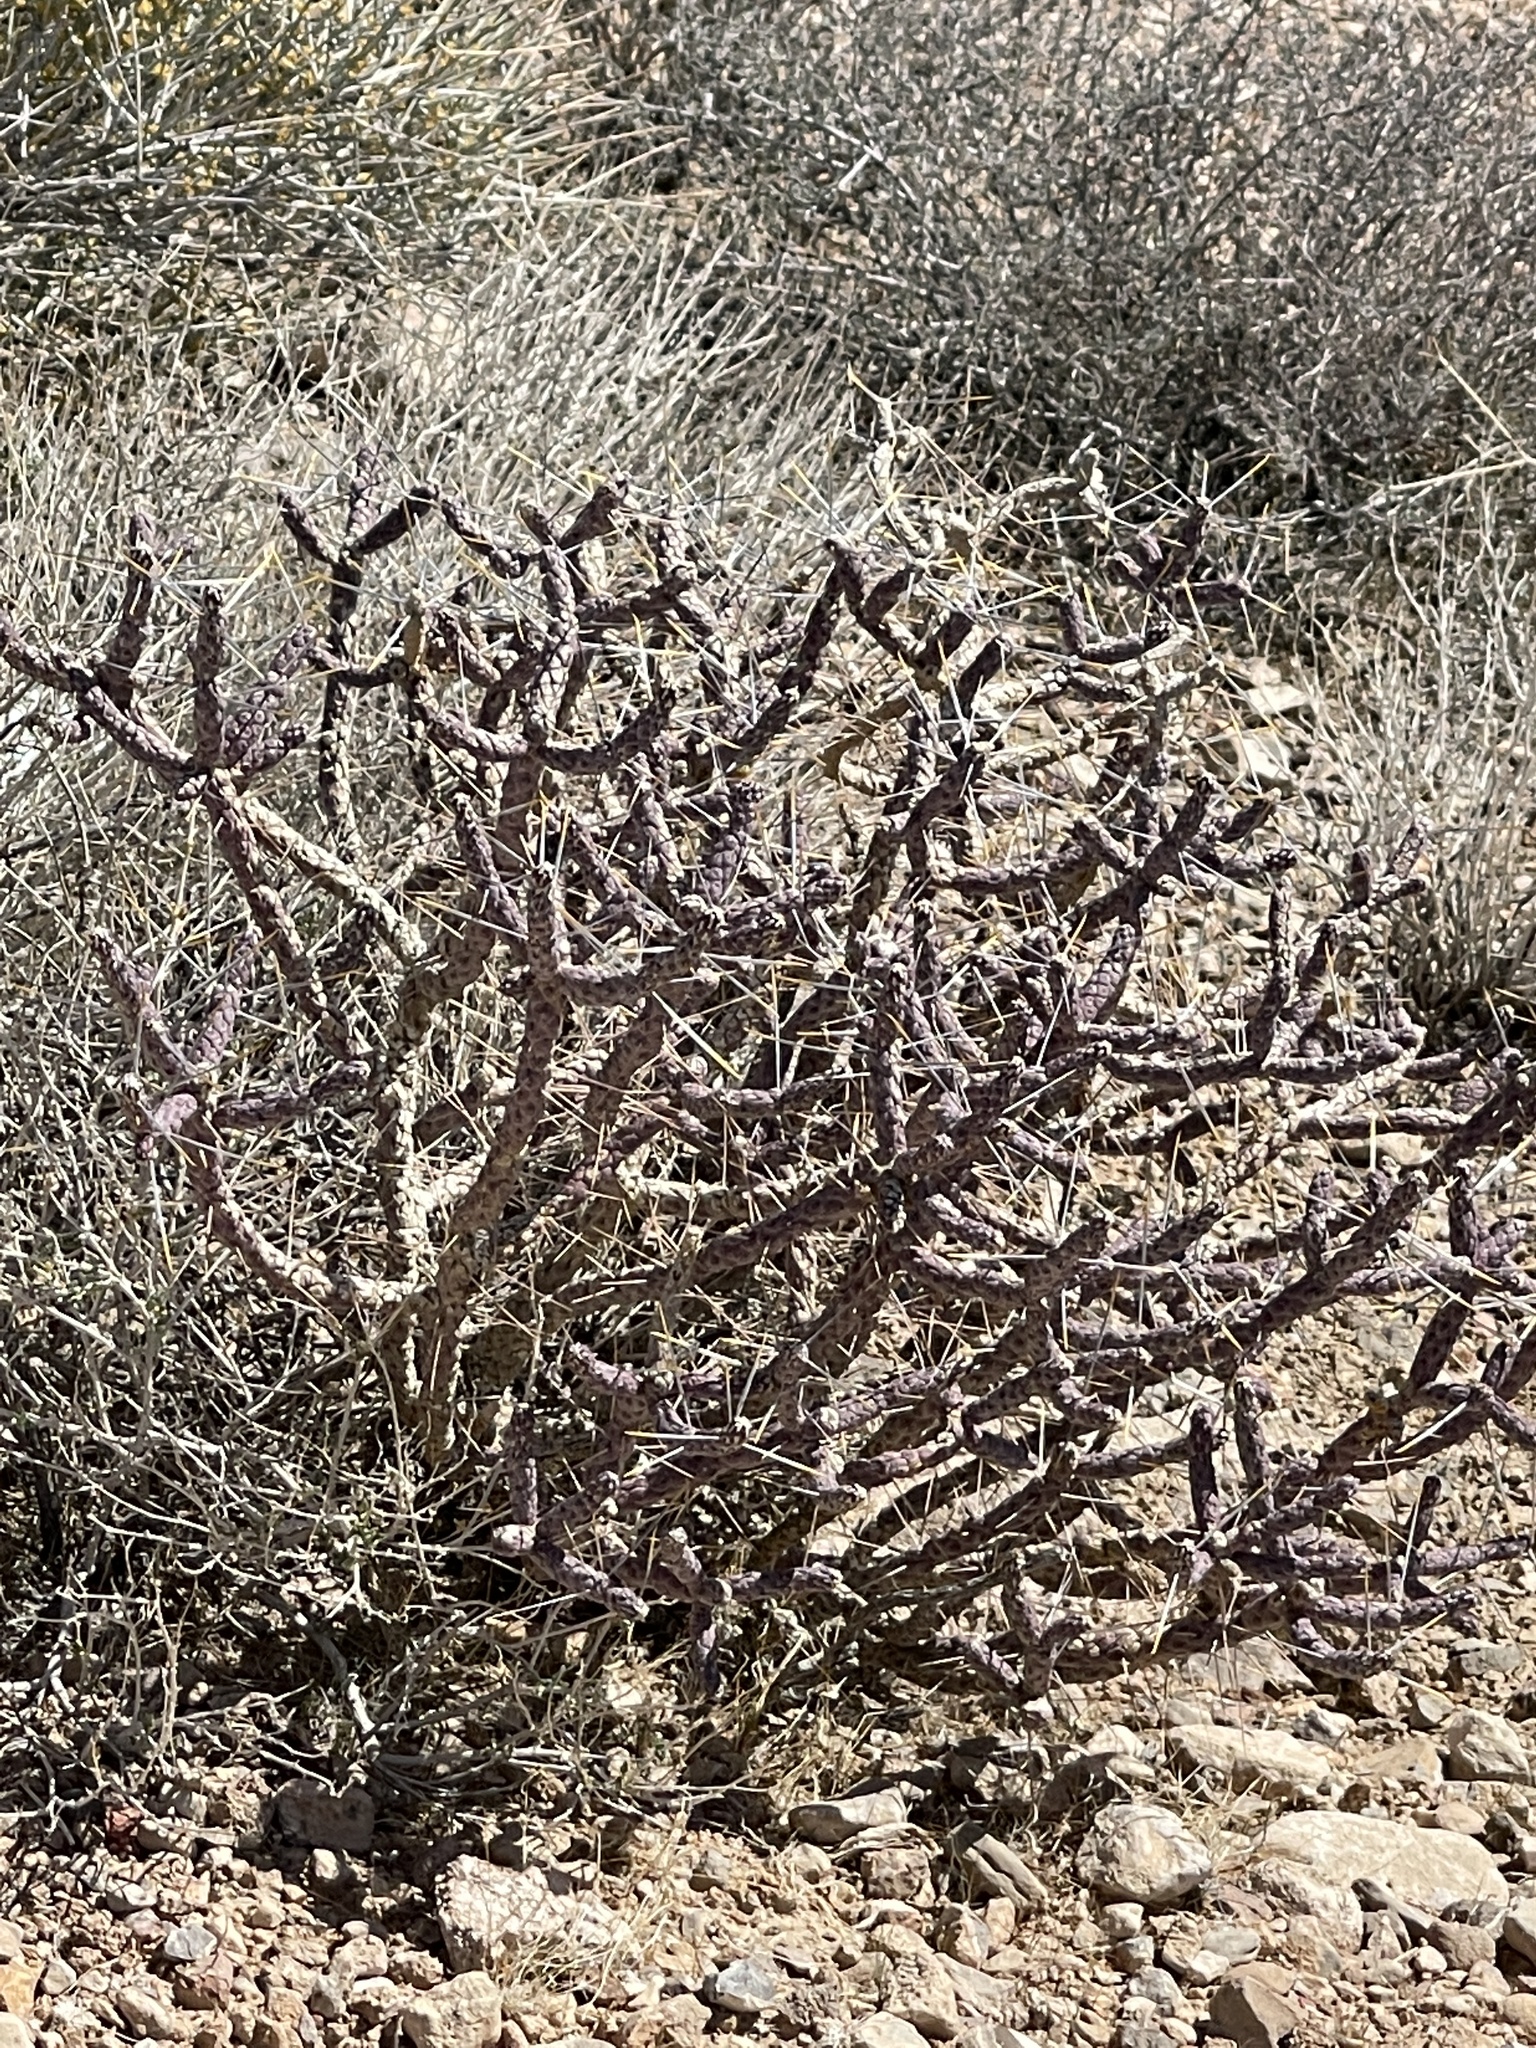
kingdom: Plantae
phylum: Tracheophyta
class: Magnoliopsida
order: Caryophyllales
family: Cactaceae
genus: Cylindropuntia
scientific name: Cylindropuntia ramosissima
